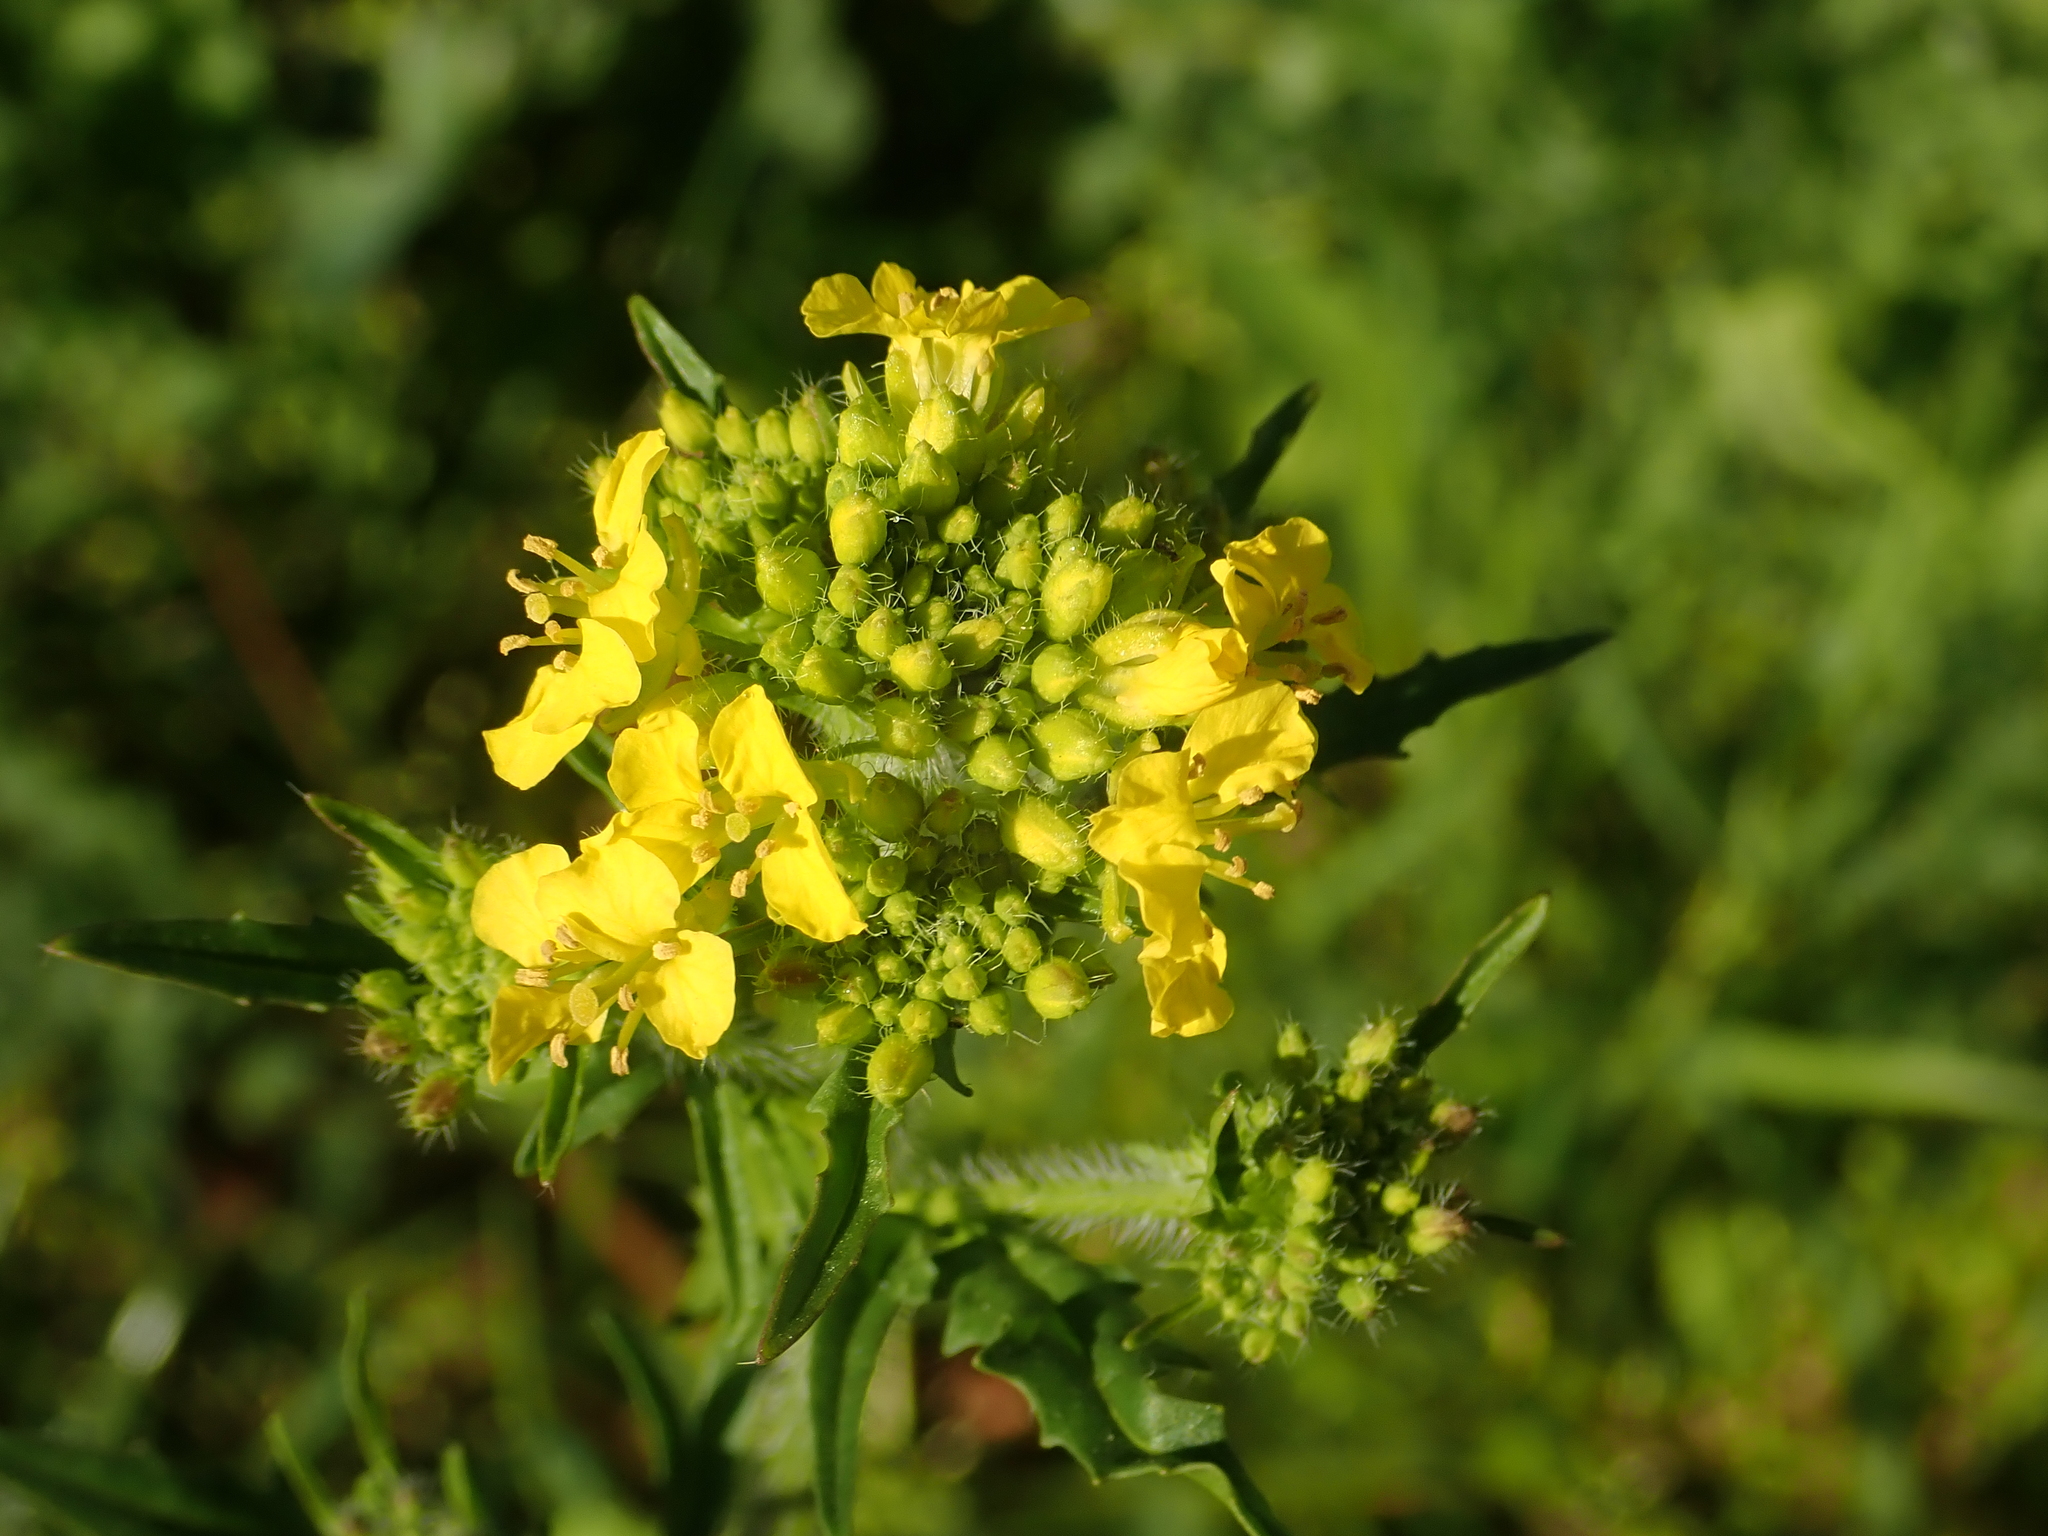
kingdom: Plantae
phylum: Tracheophyta
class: Magnoliopsida
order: Brassicales
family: Brassicaceae
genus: Sisymbrium
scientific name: Sisymbrium loeselii
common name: False london-rocket
